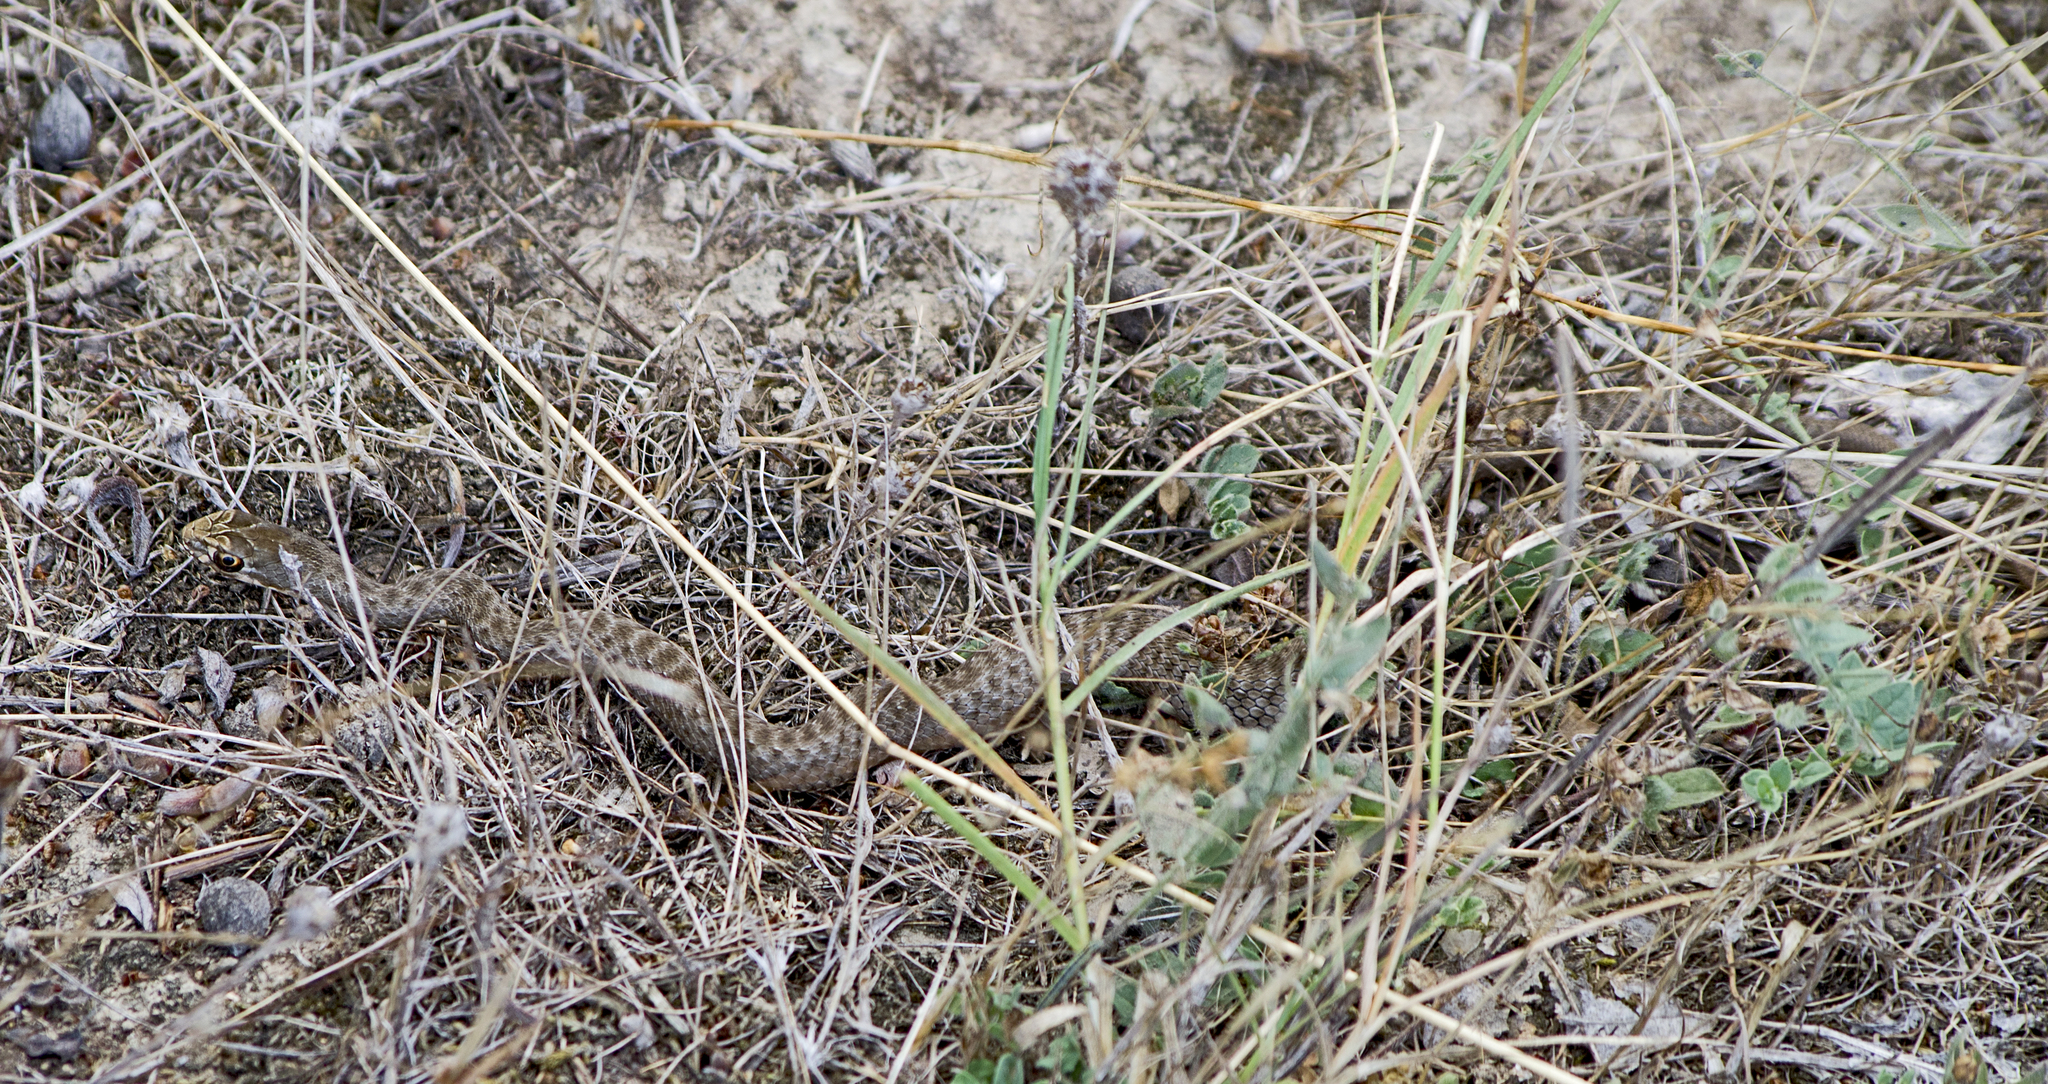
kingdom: Animalia
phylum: Chordata
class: Squamata
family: Psammophiidae
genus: Malpolon
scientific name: Malpolon insignitus
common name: Eastern montpellier snake
